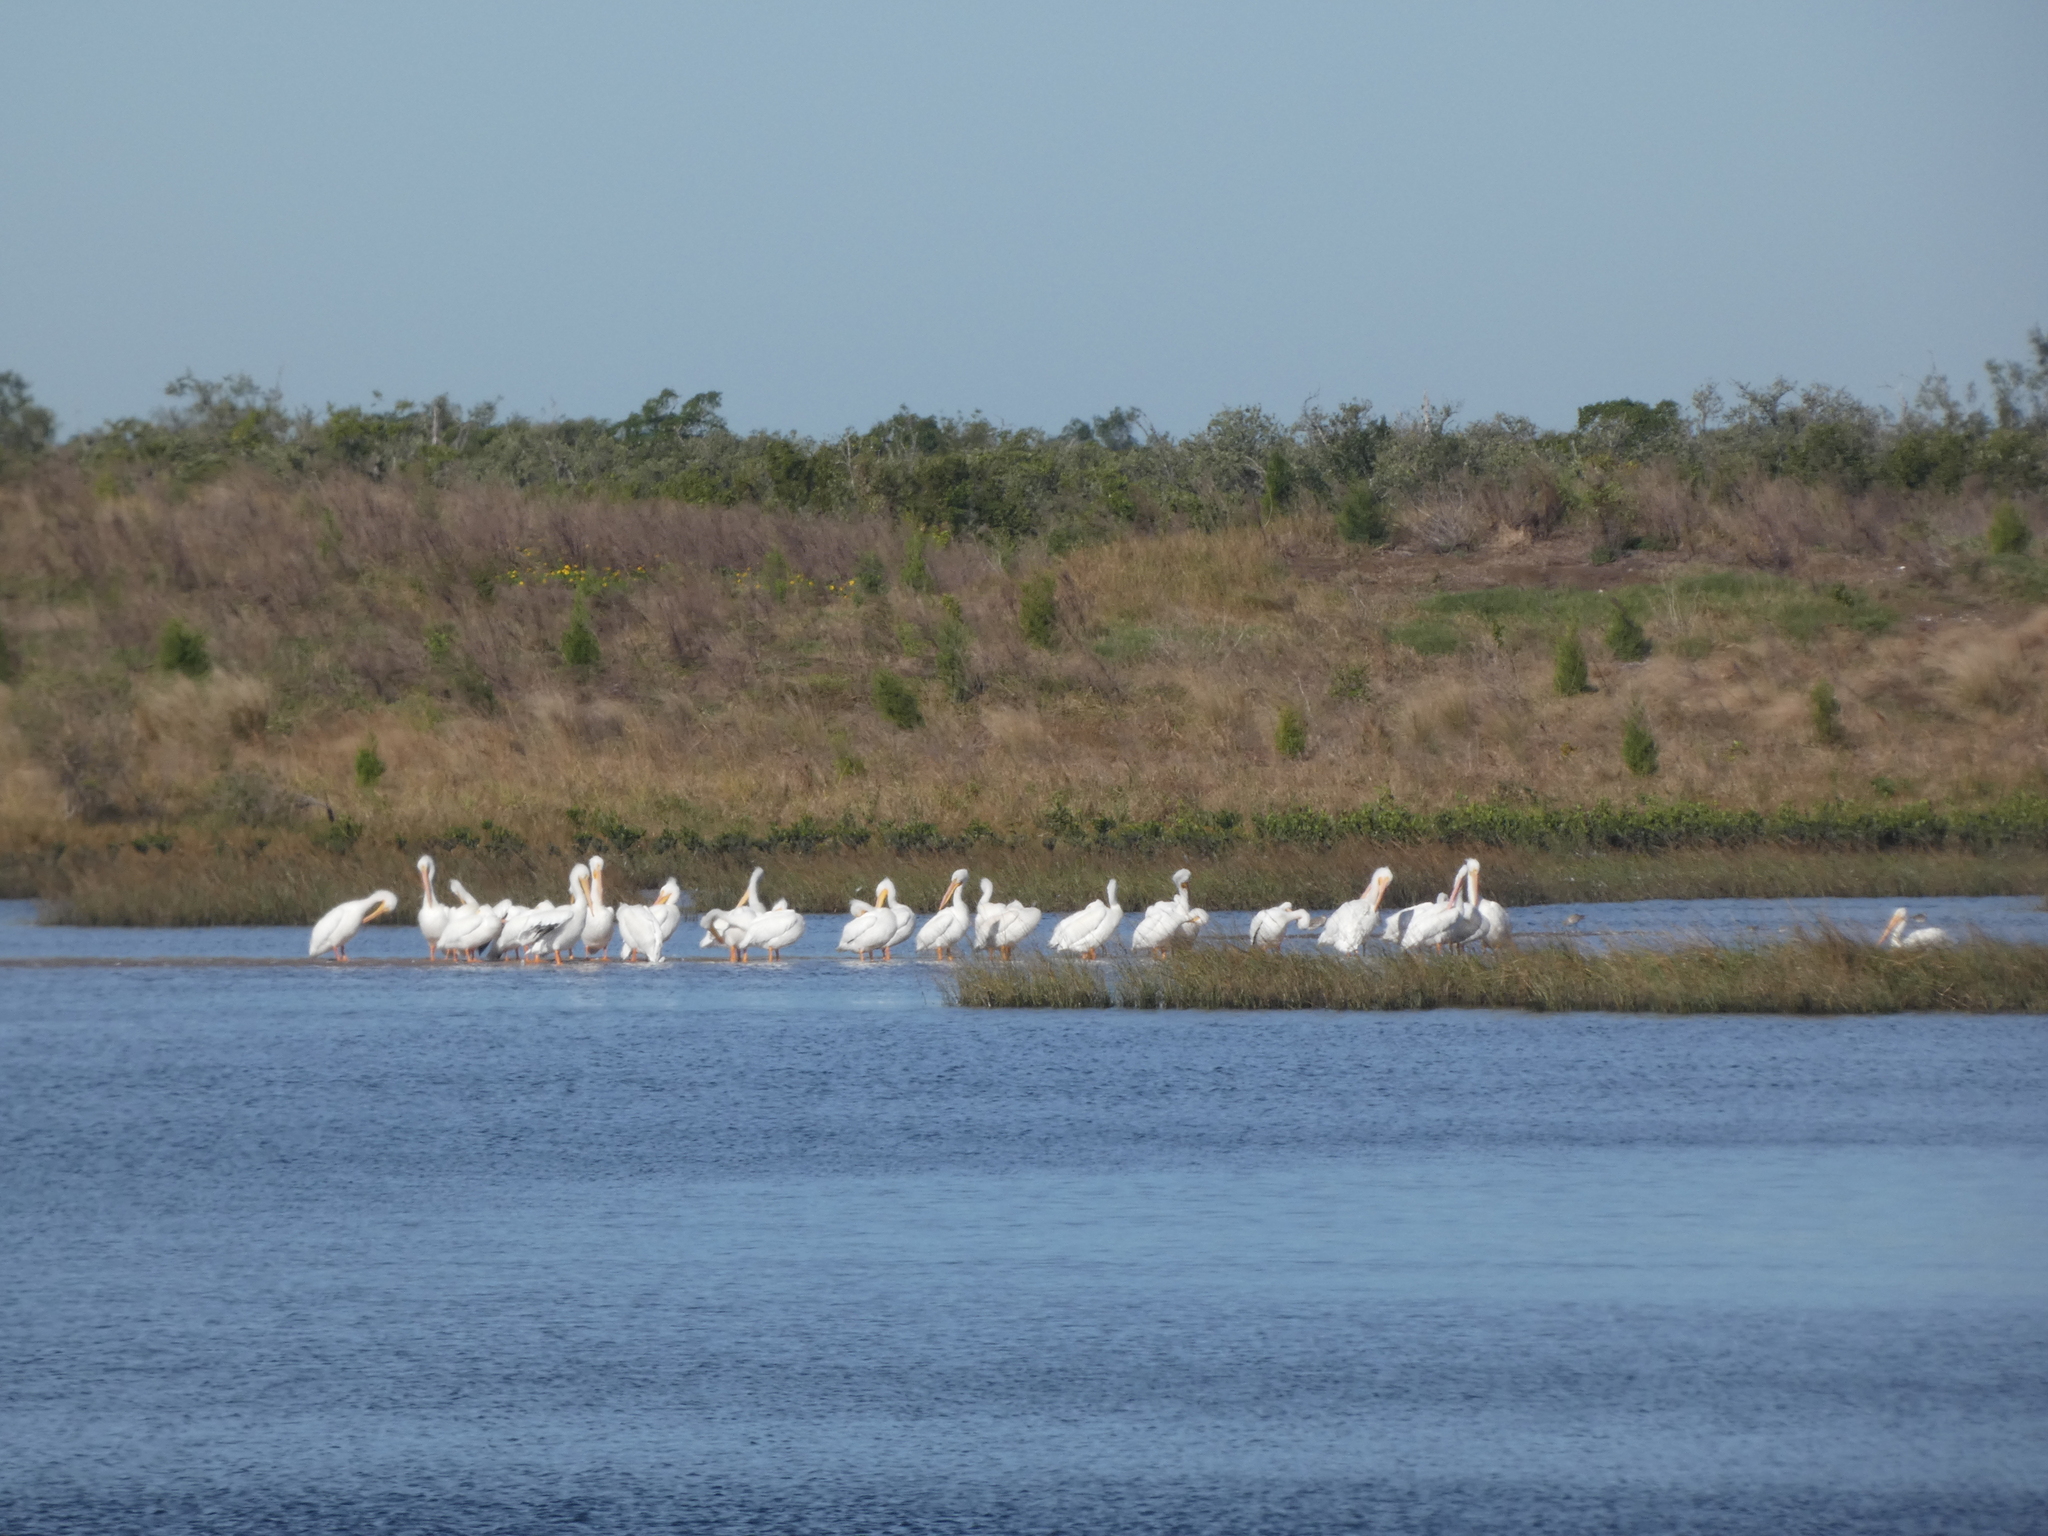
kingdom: Animalia
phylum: Chordata
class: Aves
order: Pelecaniformes
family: Pelecanidae
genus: Pelecanus
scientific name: Pelecanus erythrorhynchos
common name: American white pelican
